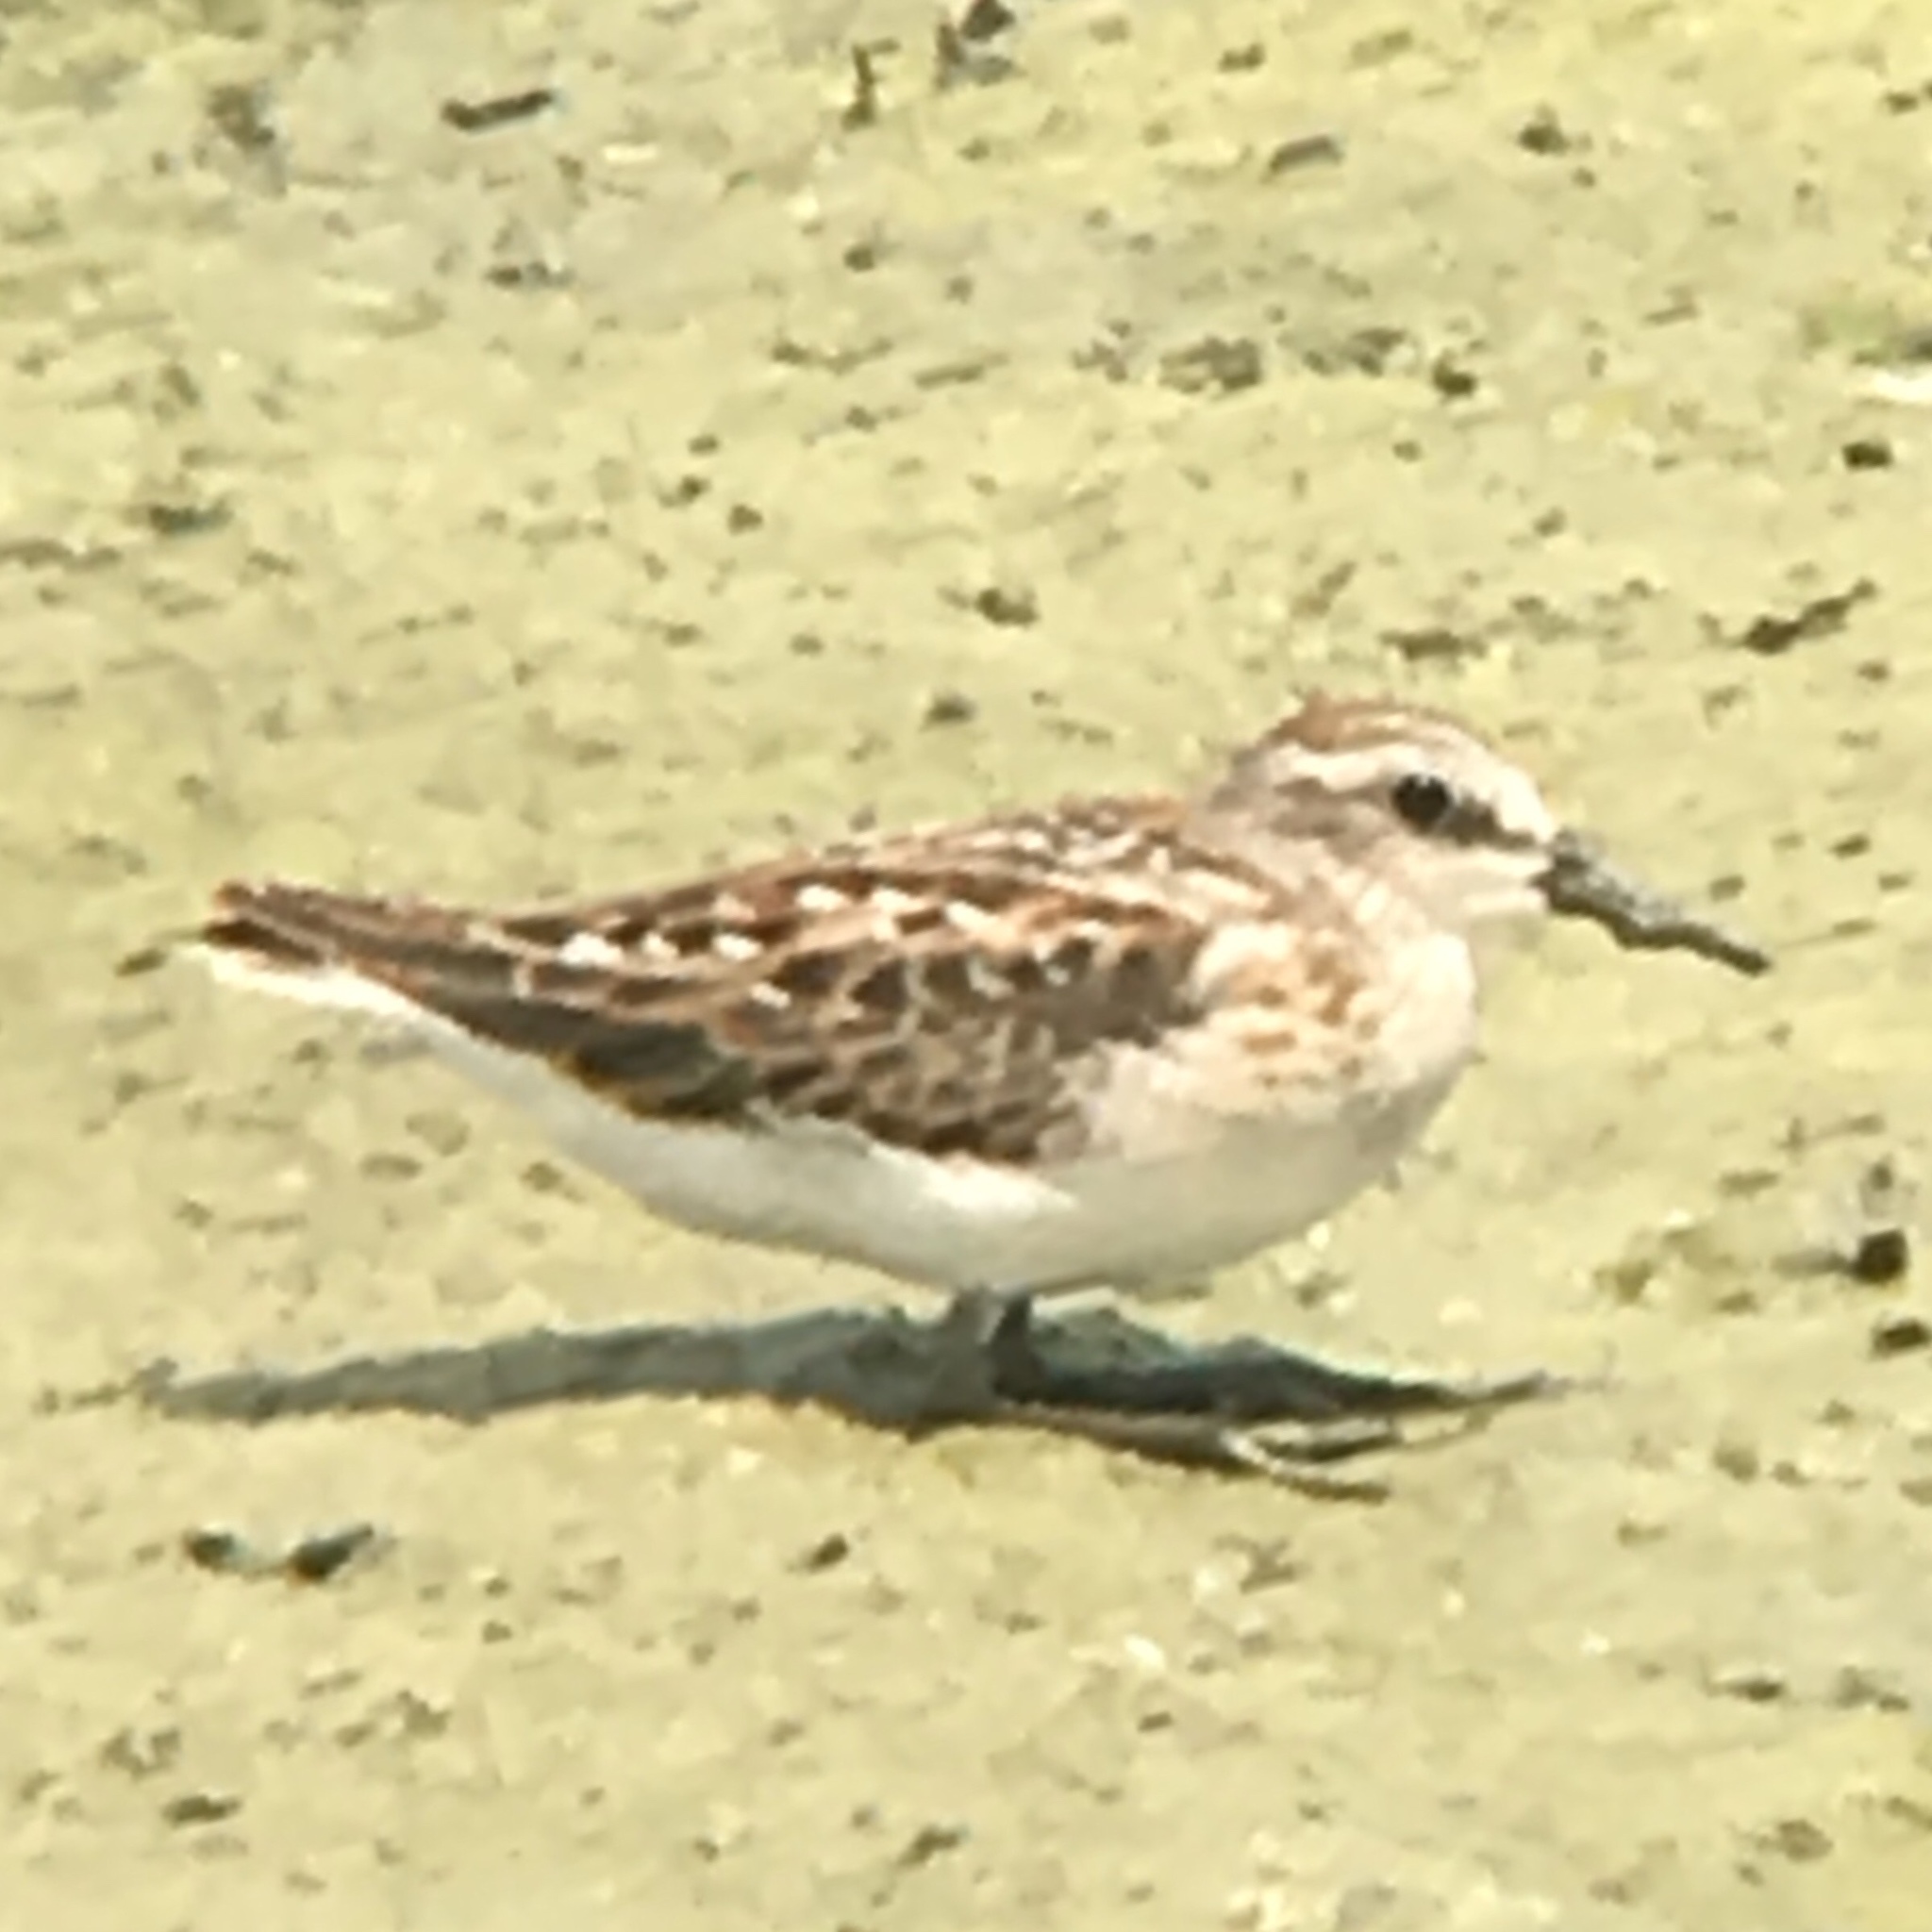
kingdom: Animalia
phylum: Chordata
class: Aves
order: Charadriiformes
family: Scolopacidae
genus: Calidris
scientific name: Calidris minutilla
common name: Least sandpiper
